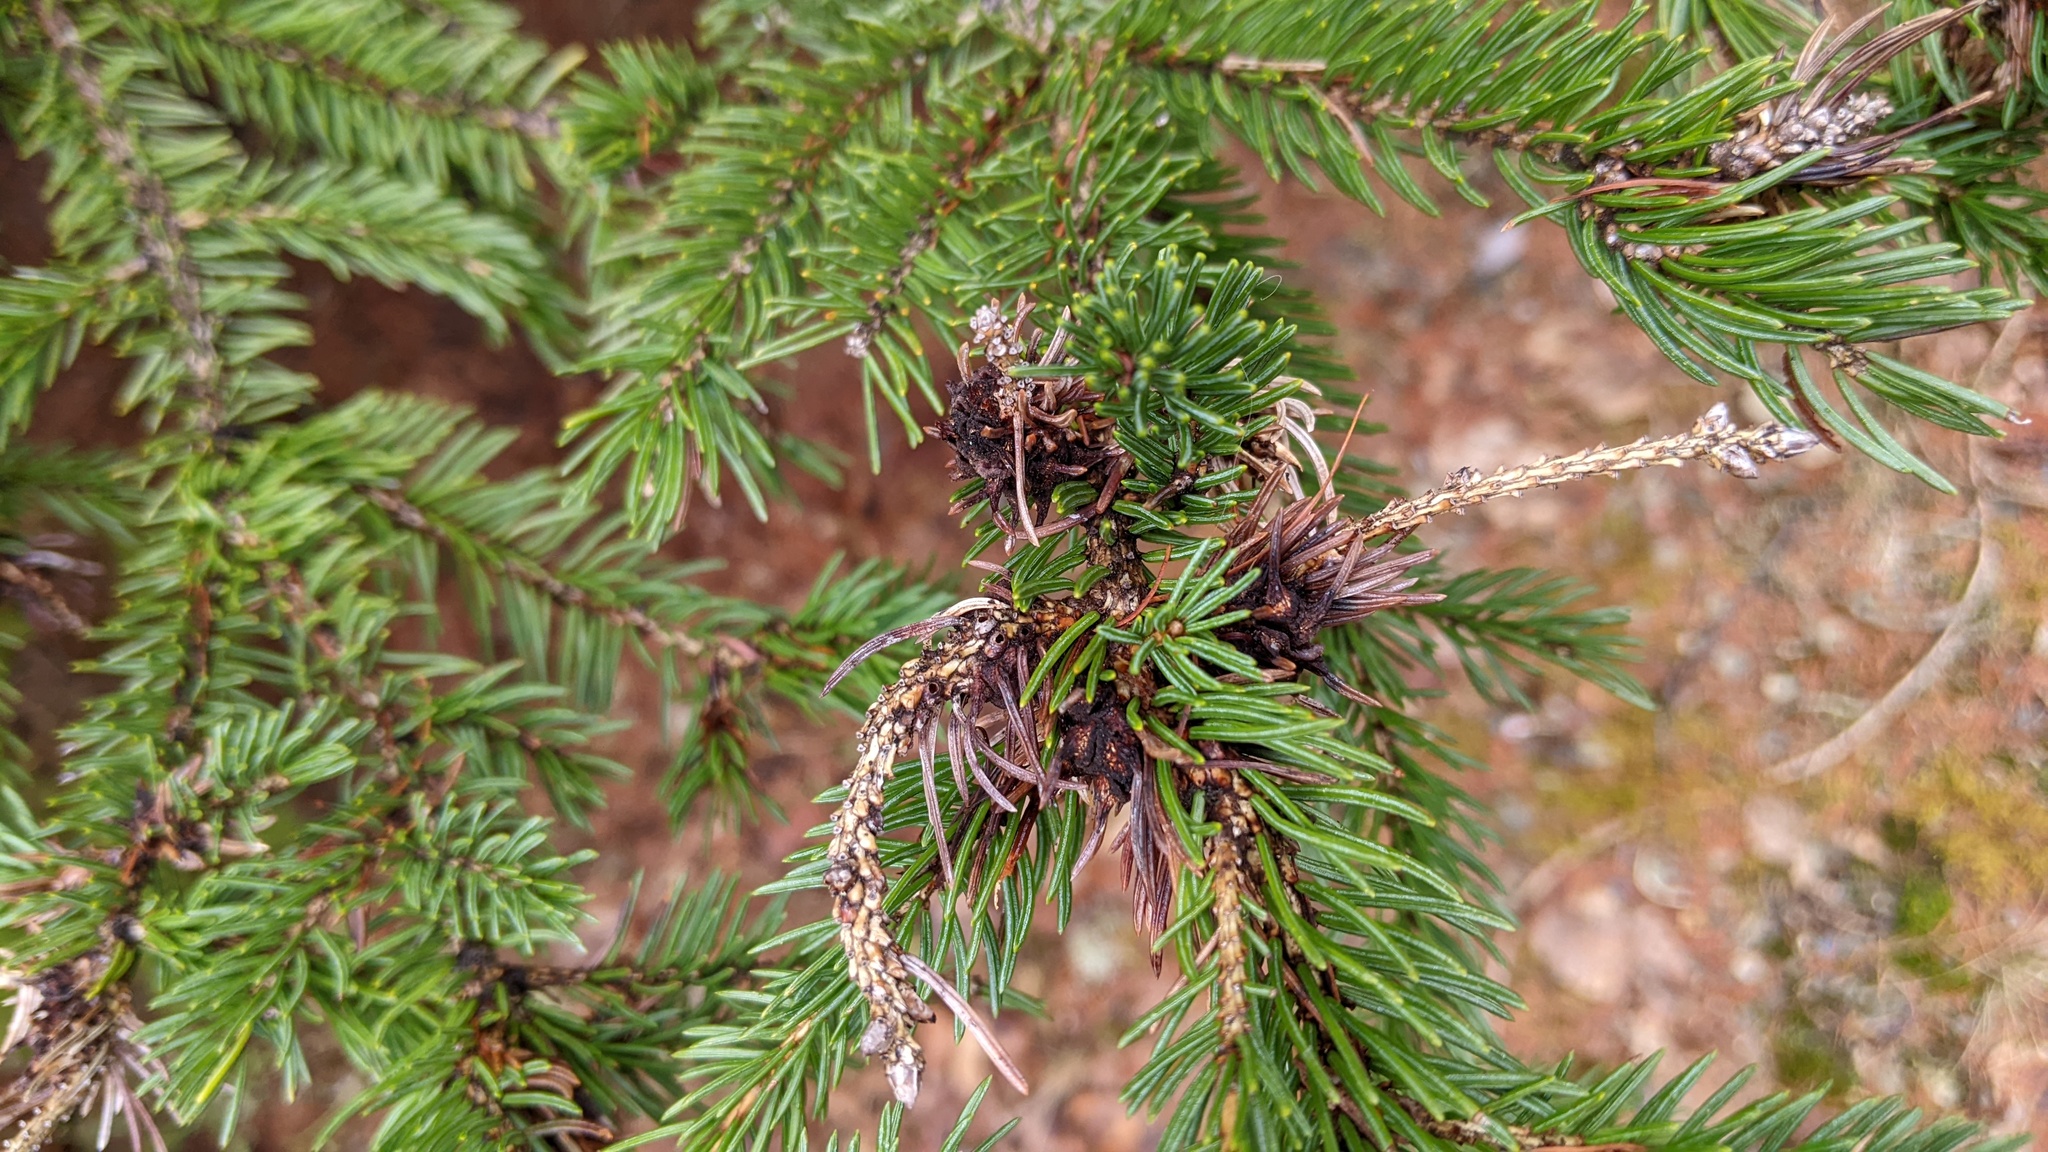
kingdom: Animalia
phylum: Arthropoda
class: Insecta
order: Hemiptera
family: Adelgidae
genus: Adelges
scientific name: Adelges abietis
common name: Eastern spruce gall adelgid
